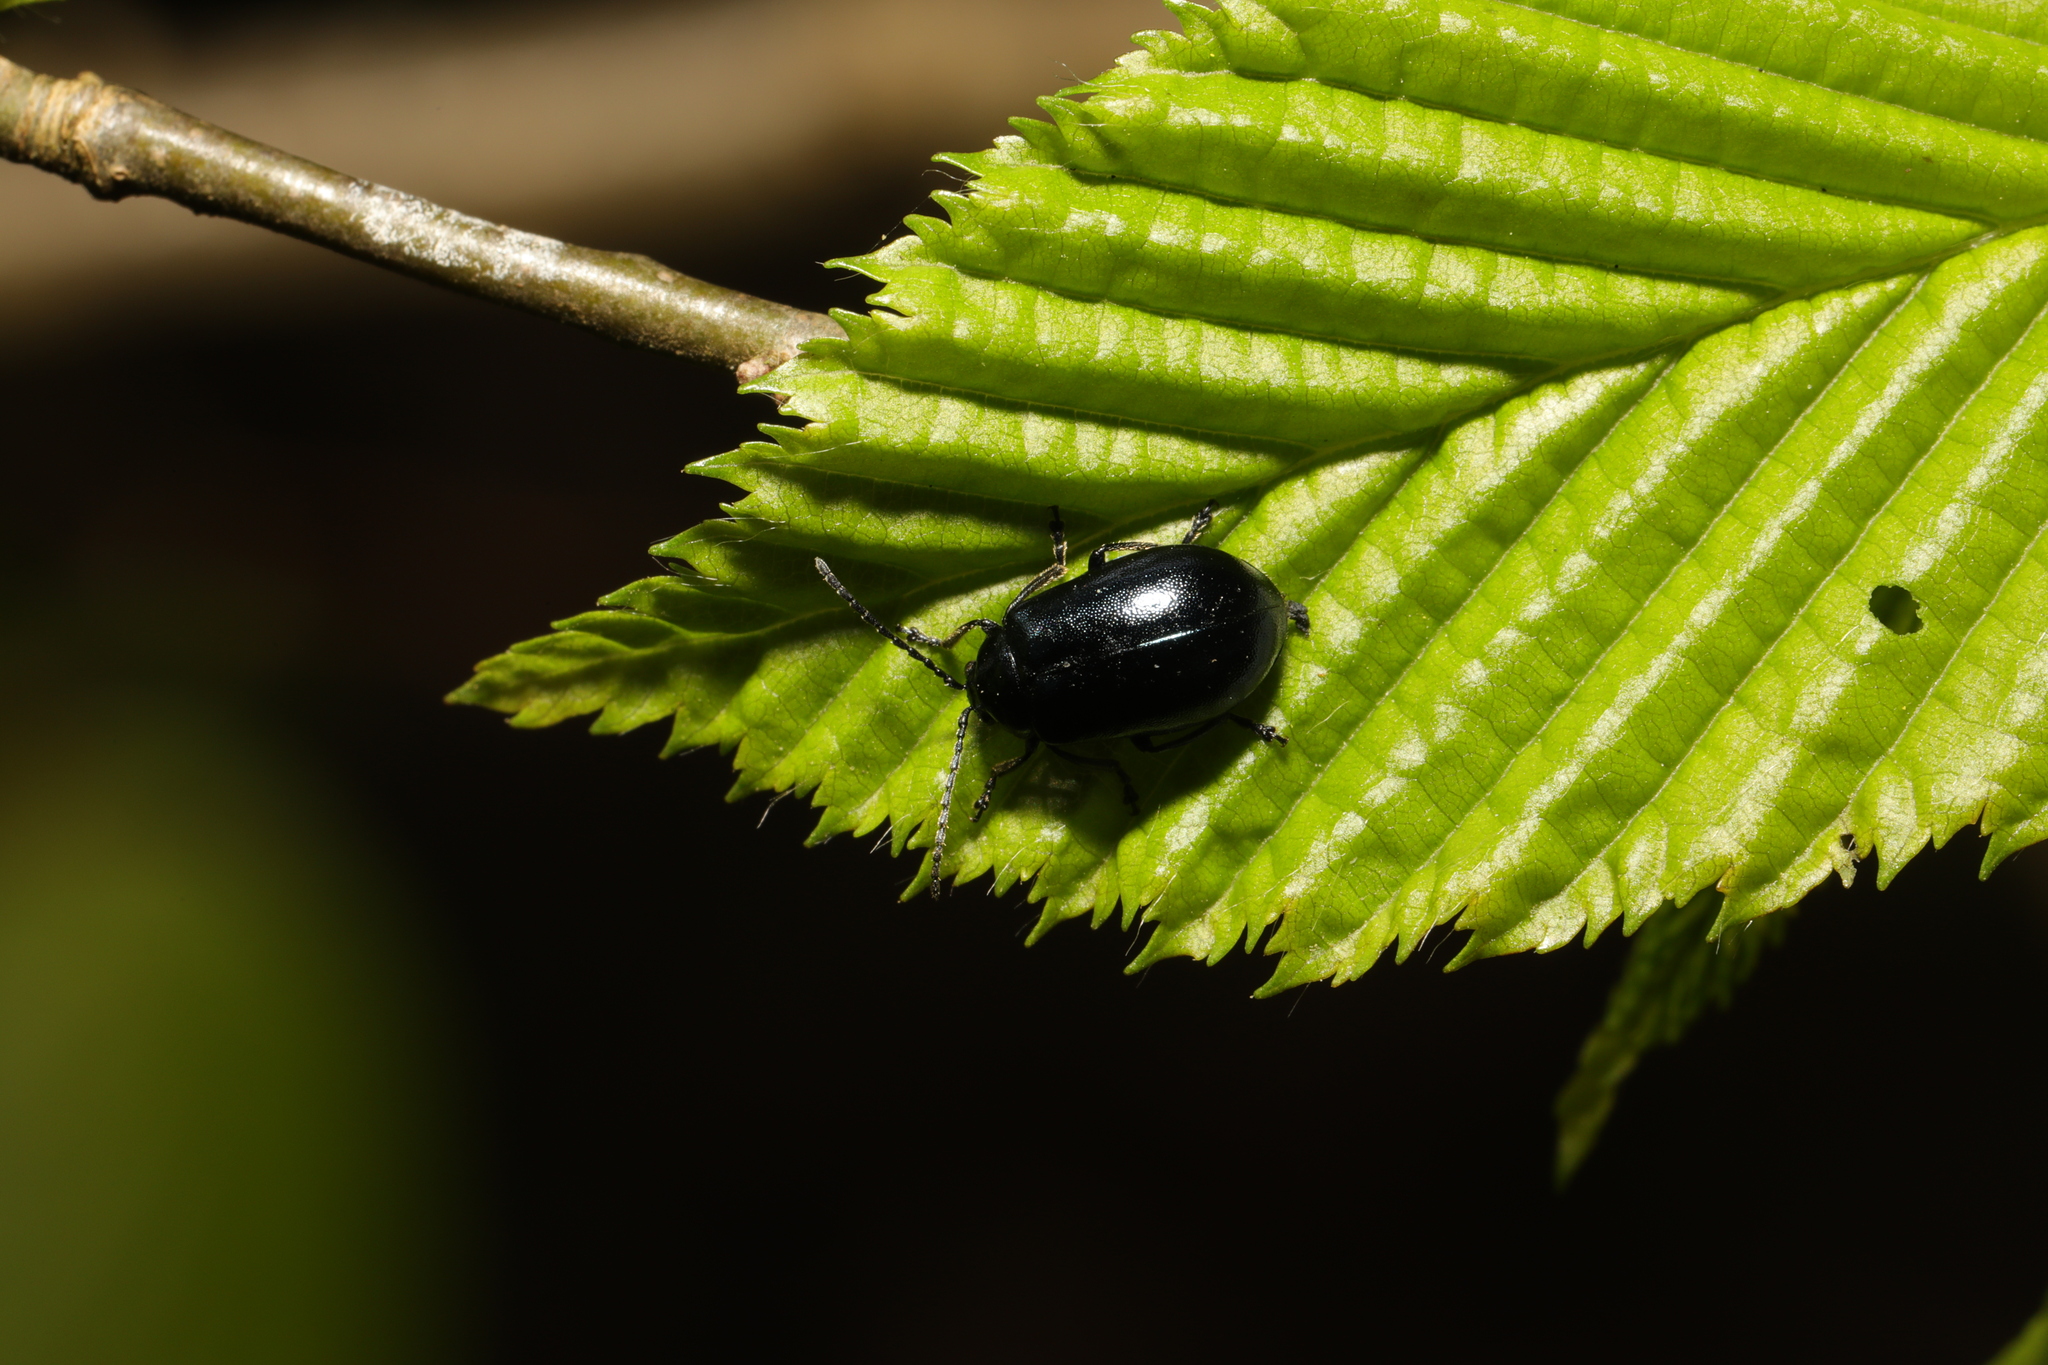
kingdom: Animalia
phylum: Arthropoda
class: Insecta
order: Coleoptera
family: Chrysomelidae
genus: Agelastica
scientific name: Agelastica alni
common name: Alder leaf beetle
